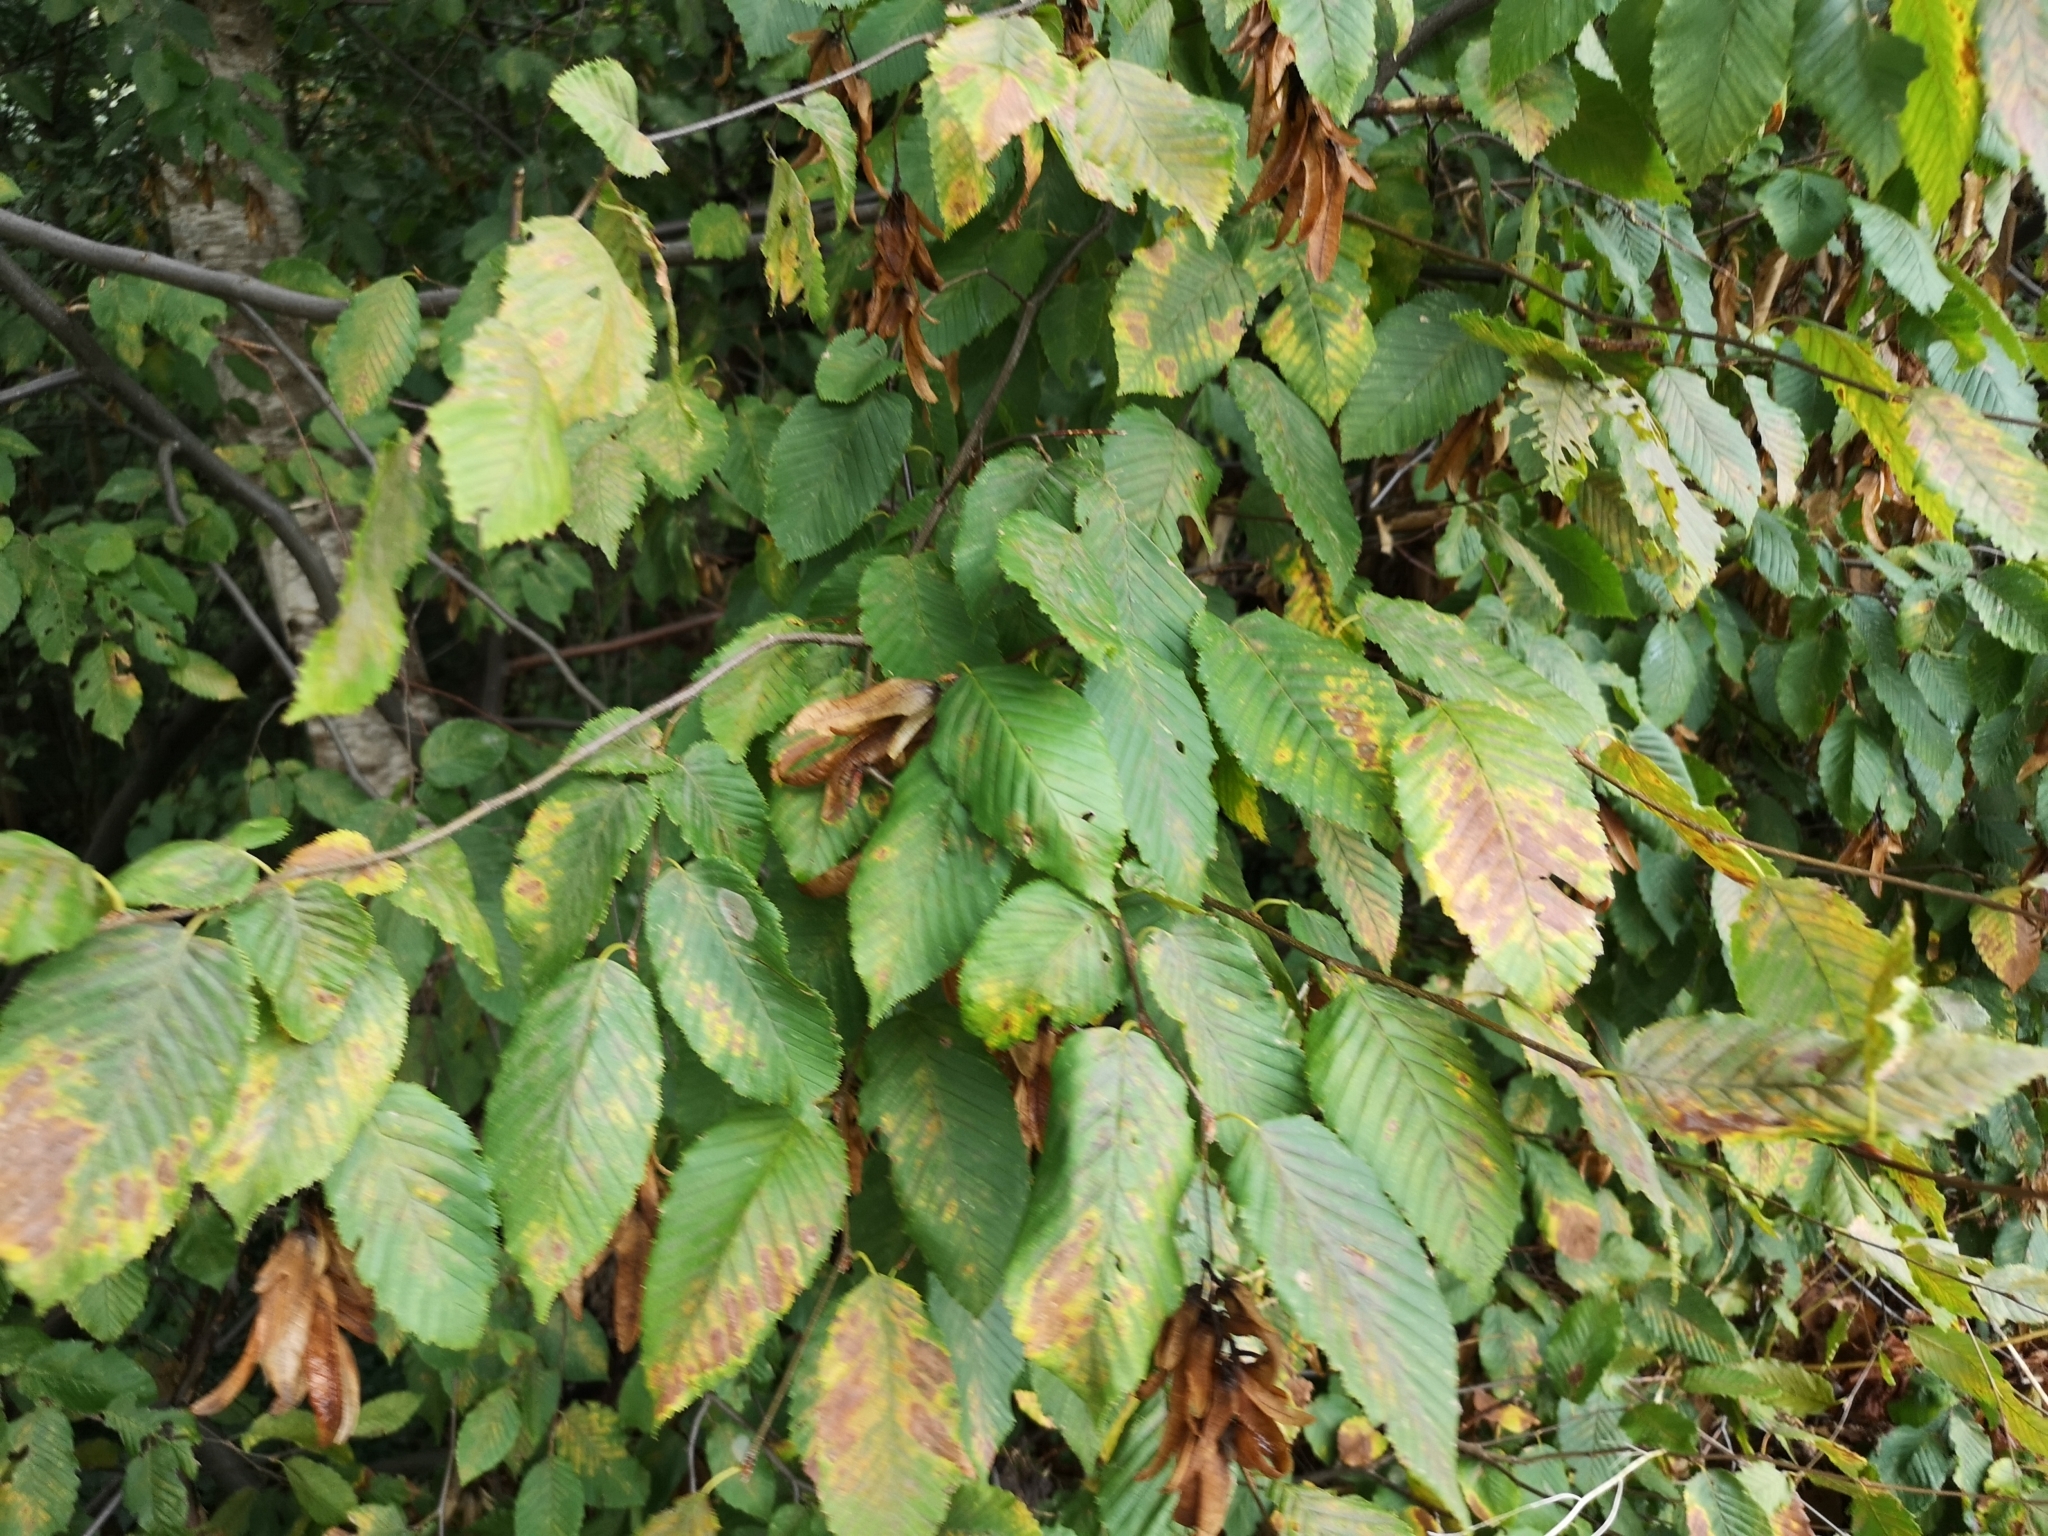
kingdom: Plantae
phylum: Tracheophyta
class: Magnoliopsida
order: Fagales
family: Betulaceae
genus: Carpinus
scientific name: Carpinus betulus
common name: Hornbeam
